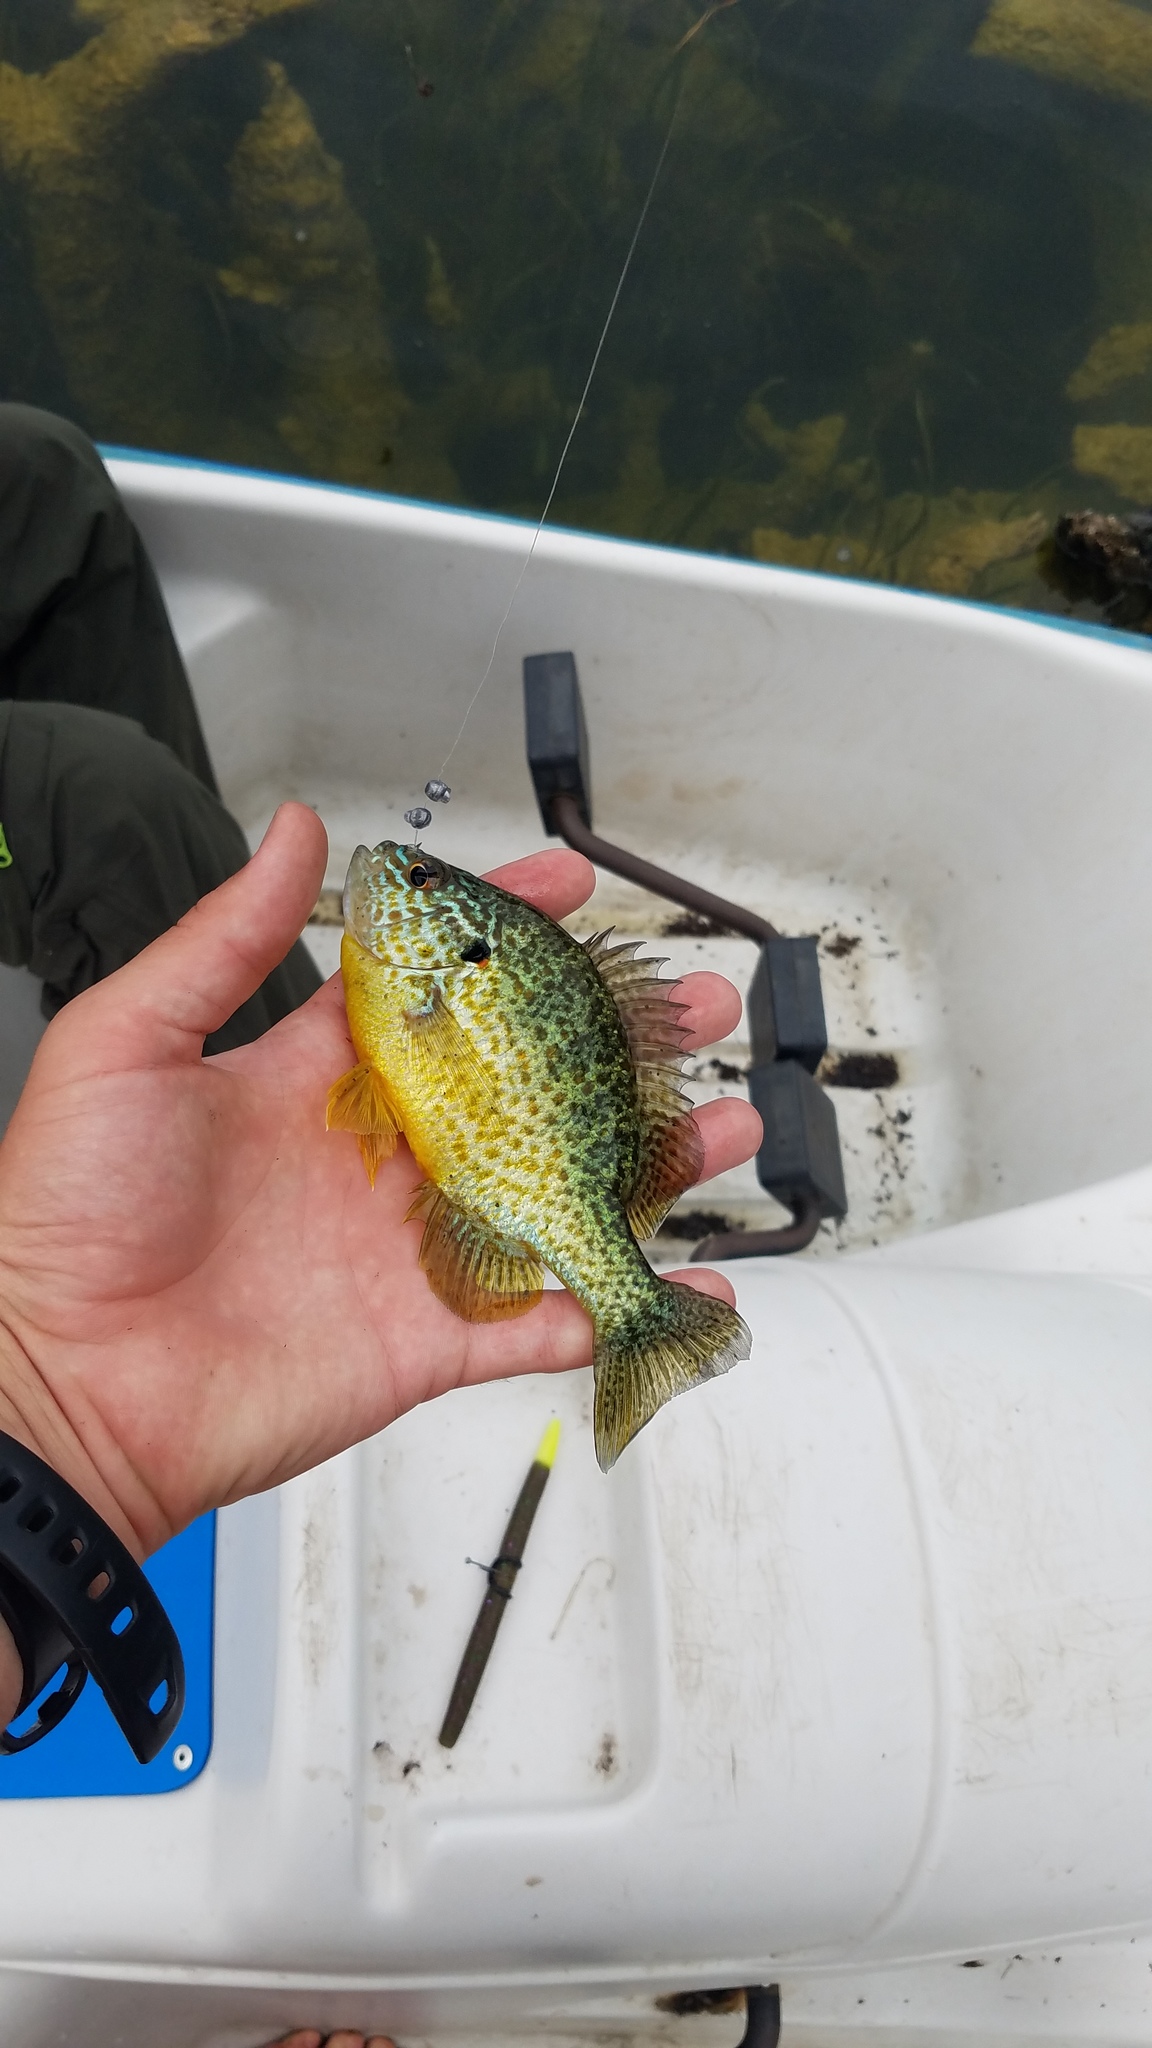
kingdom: Animalia
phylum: Chordata
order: Perciformes
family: Centrarchidae
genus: Lepomis
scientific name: Lepomis gibbosus
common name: Pumpkinseed
